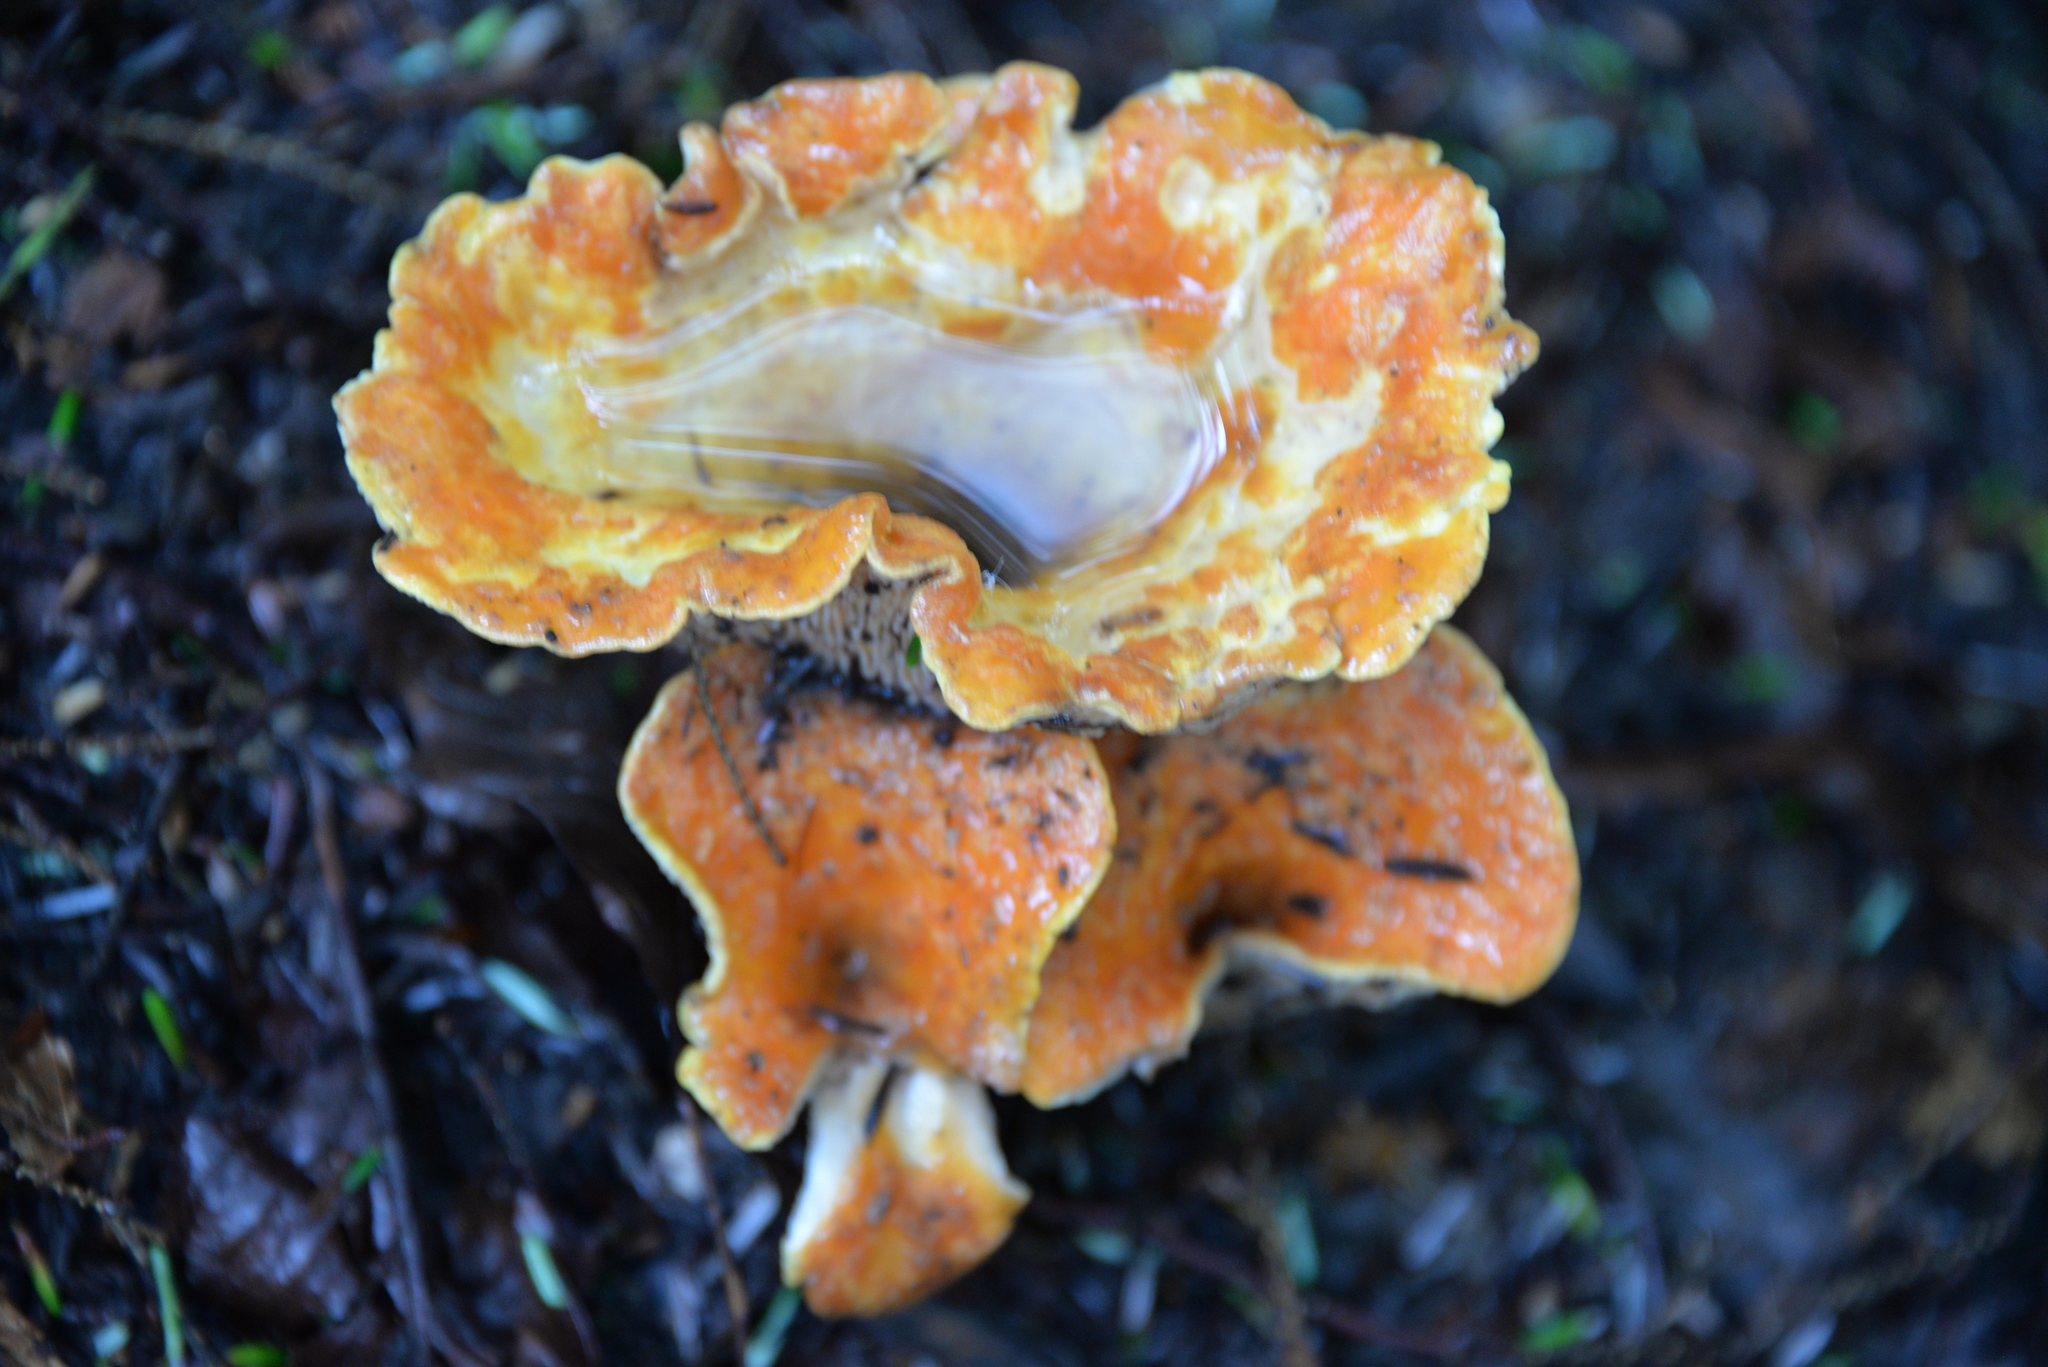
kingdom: Fungi
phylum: Basidiomycota
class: Agaricomycetes
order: Gomphales
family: Gomphaceae
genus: Turbinellus
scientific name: Turbinellus floccosus
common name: Scaly chanterelle
